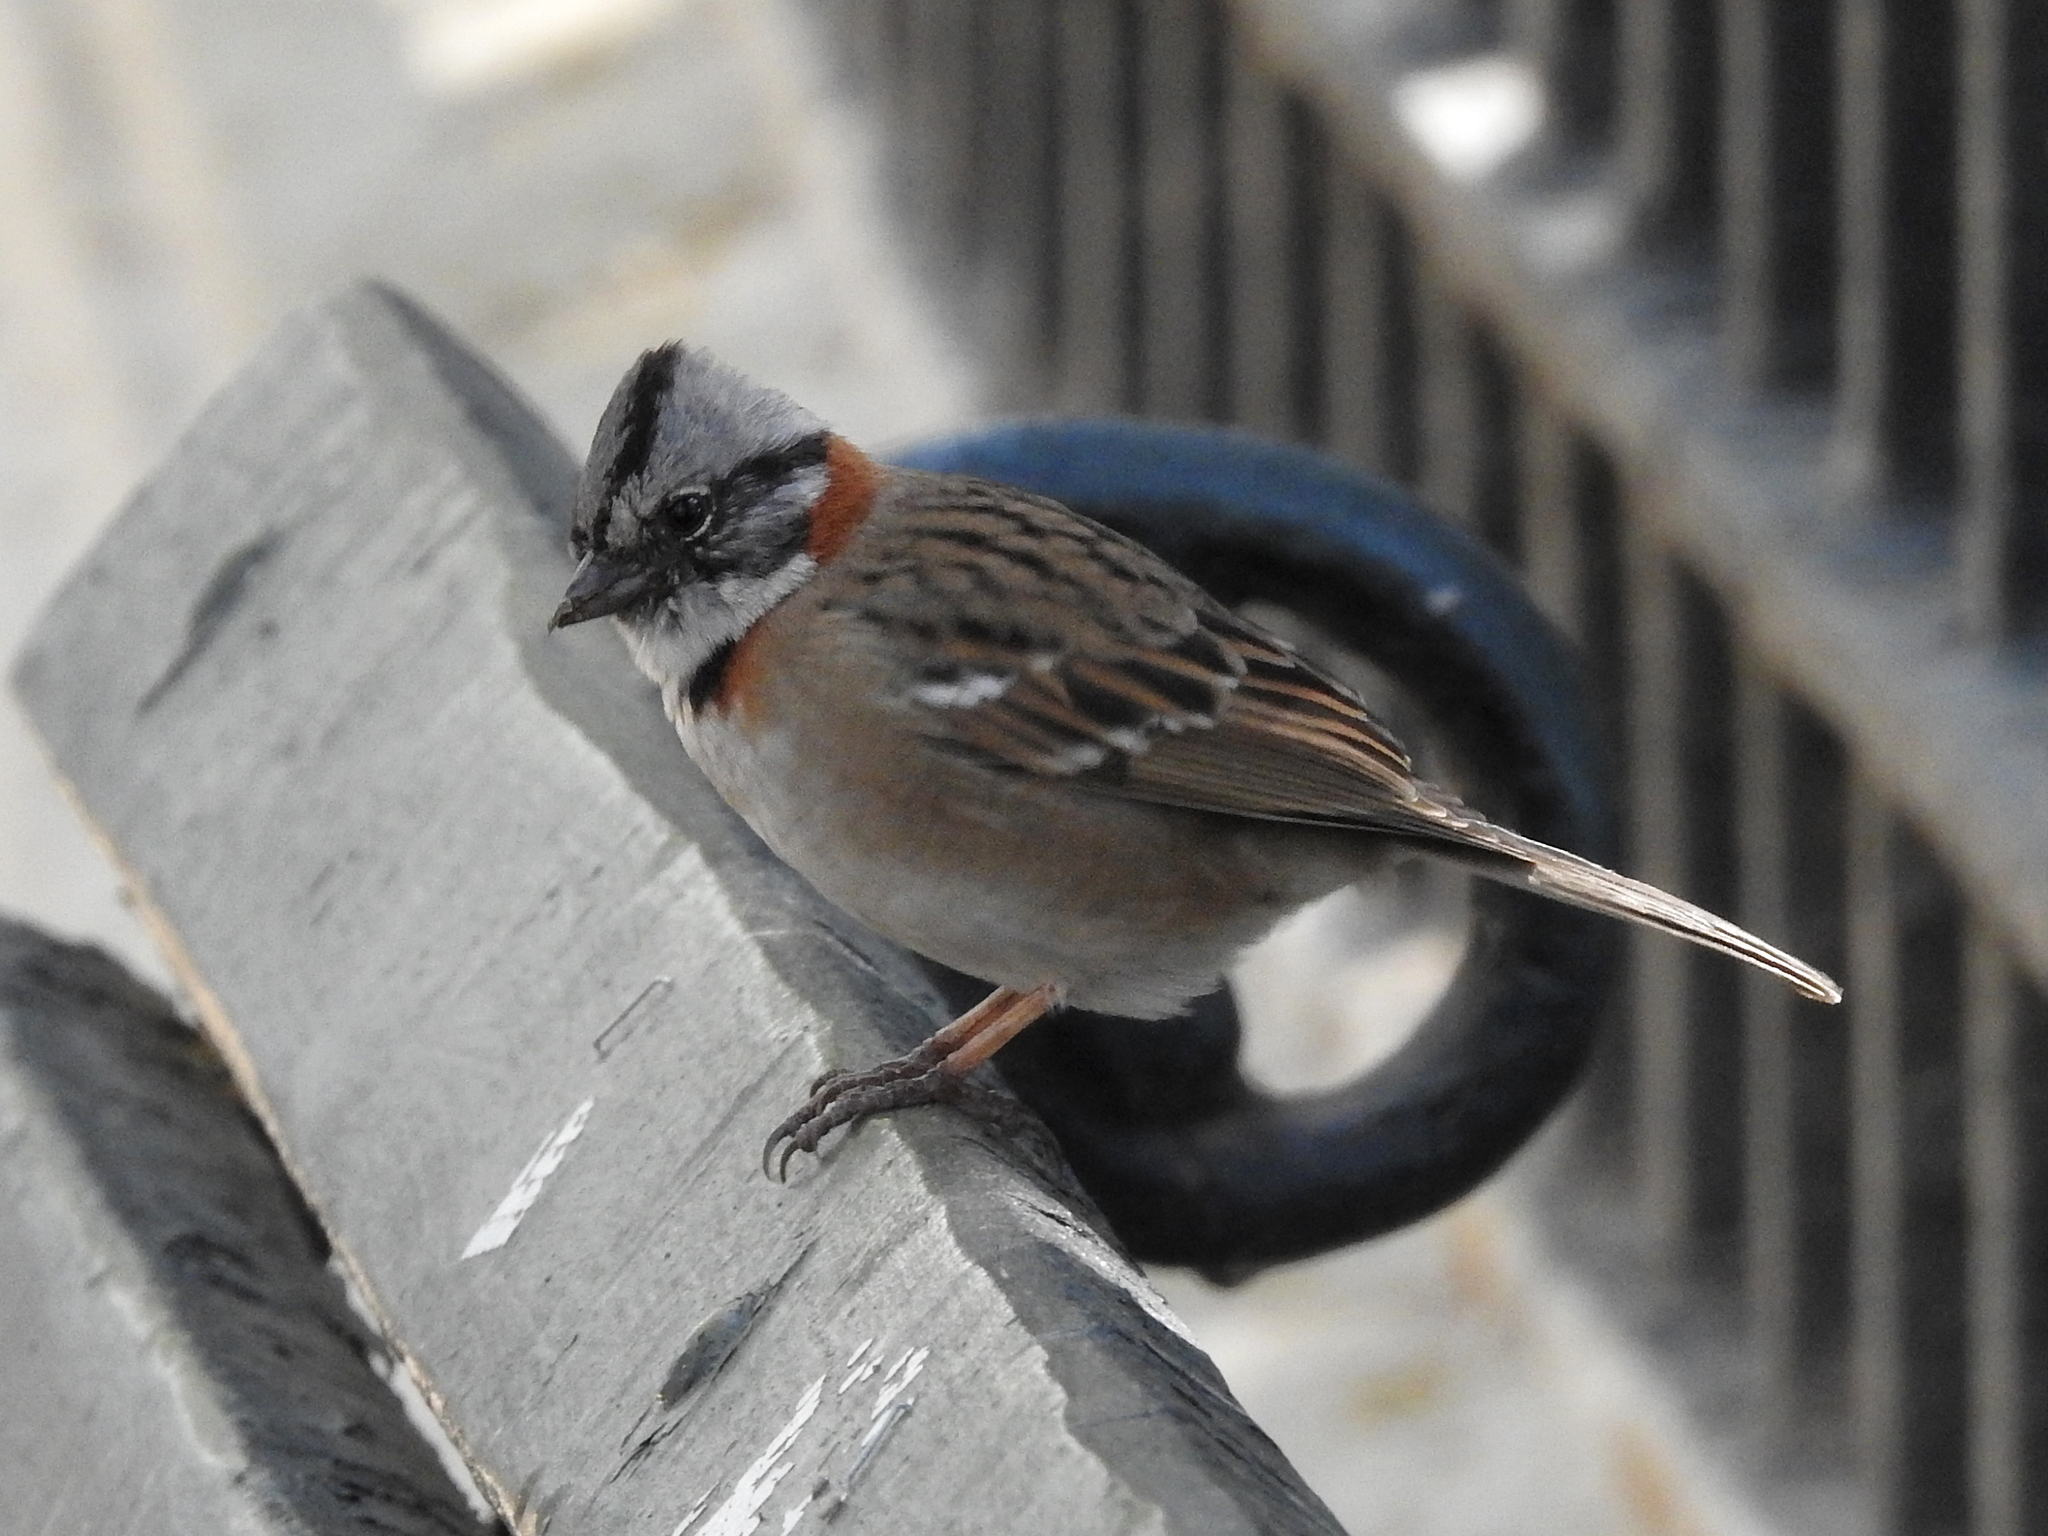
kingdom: Animalia
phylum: Chordata
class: Aves
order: Passeriformes
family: Passerellidae
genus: Zonotrichia
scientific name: Zonotrichia capensis
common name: Rufous-collared sparrow
